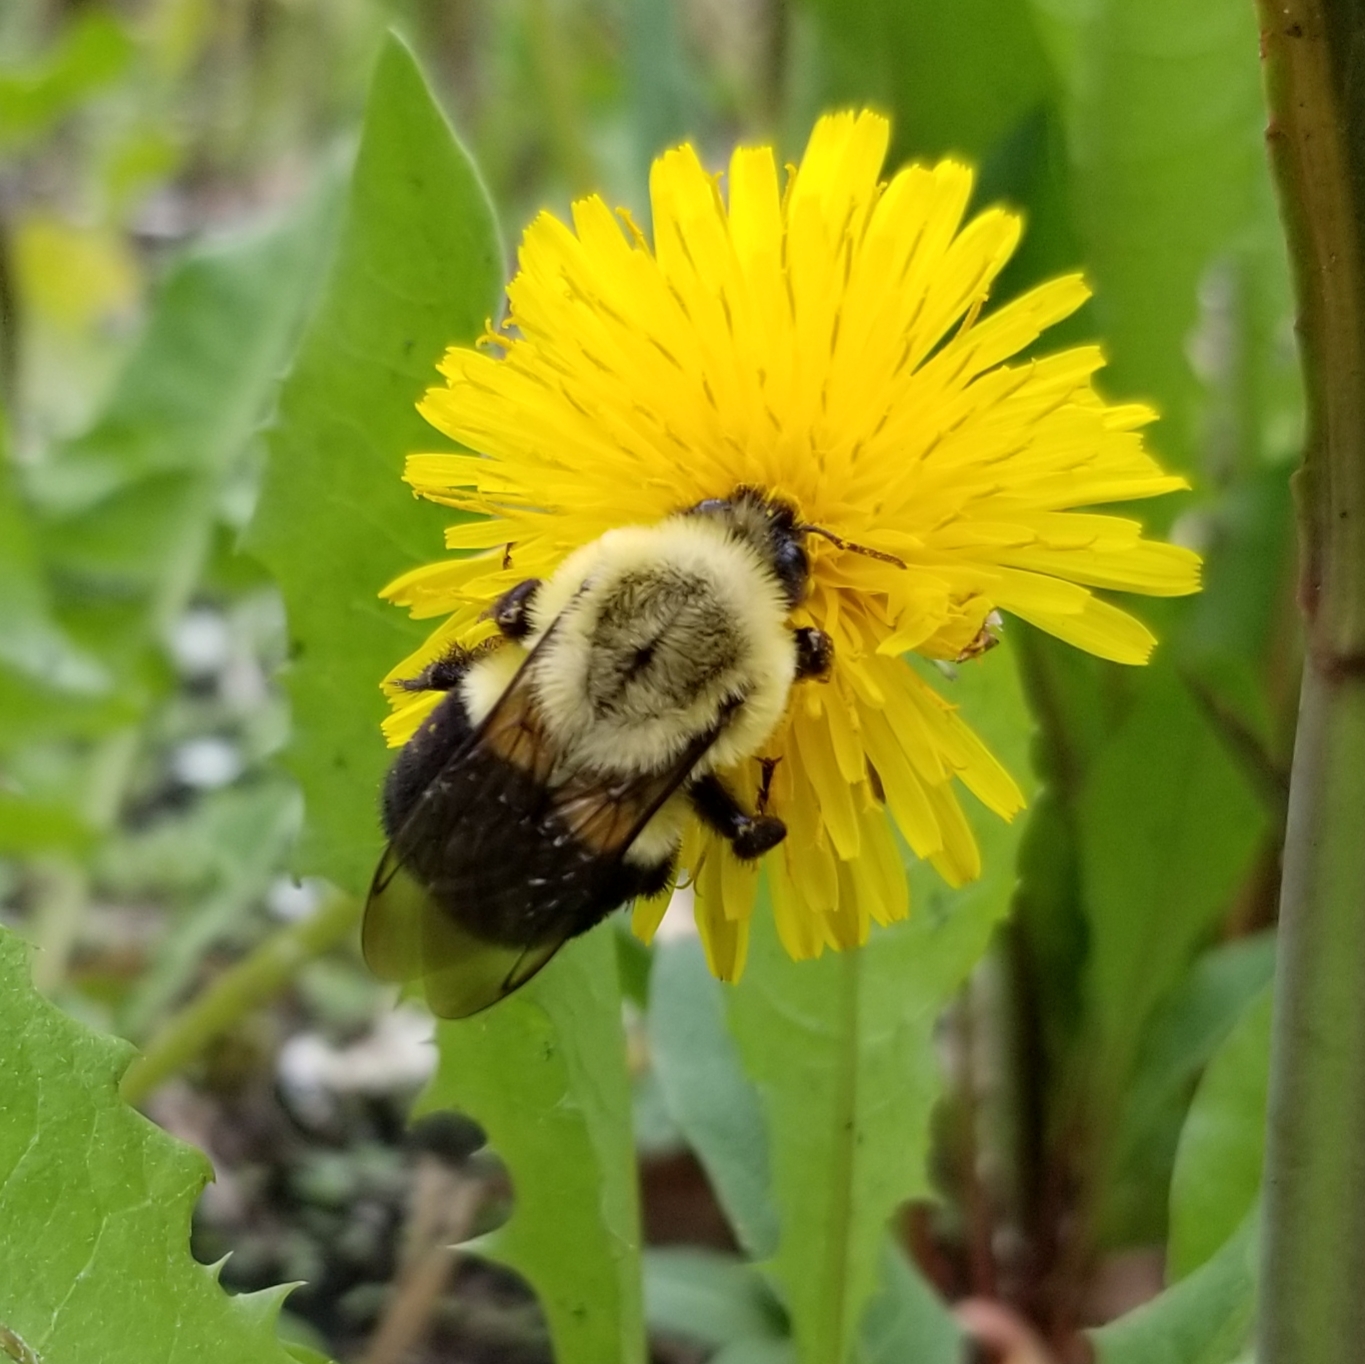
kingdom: Animalia
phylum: Arthropoda
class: Insecta
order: Hymenoptera
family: Apidae
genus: Bombus
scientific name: Bombus impatiens
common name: Common eastern bumble bee
